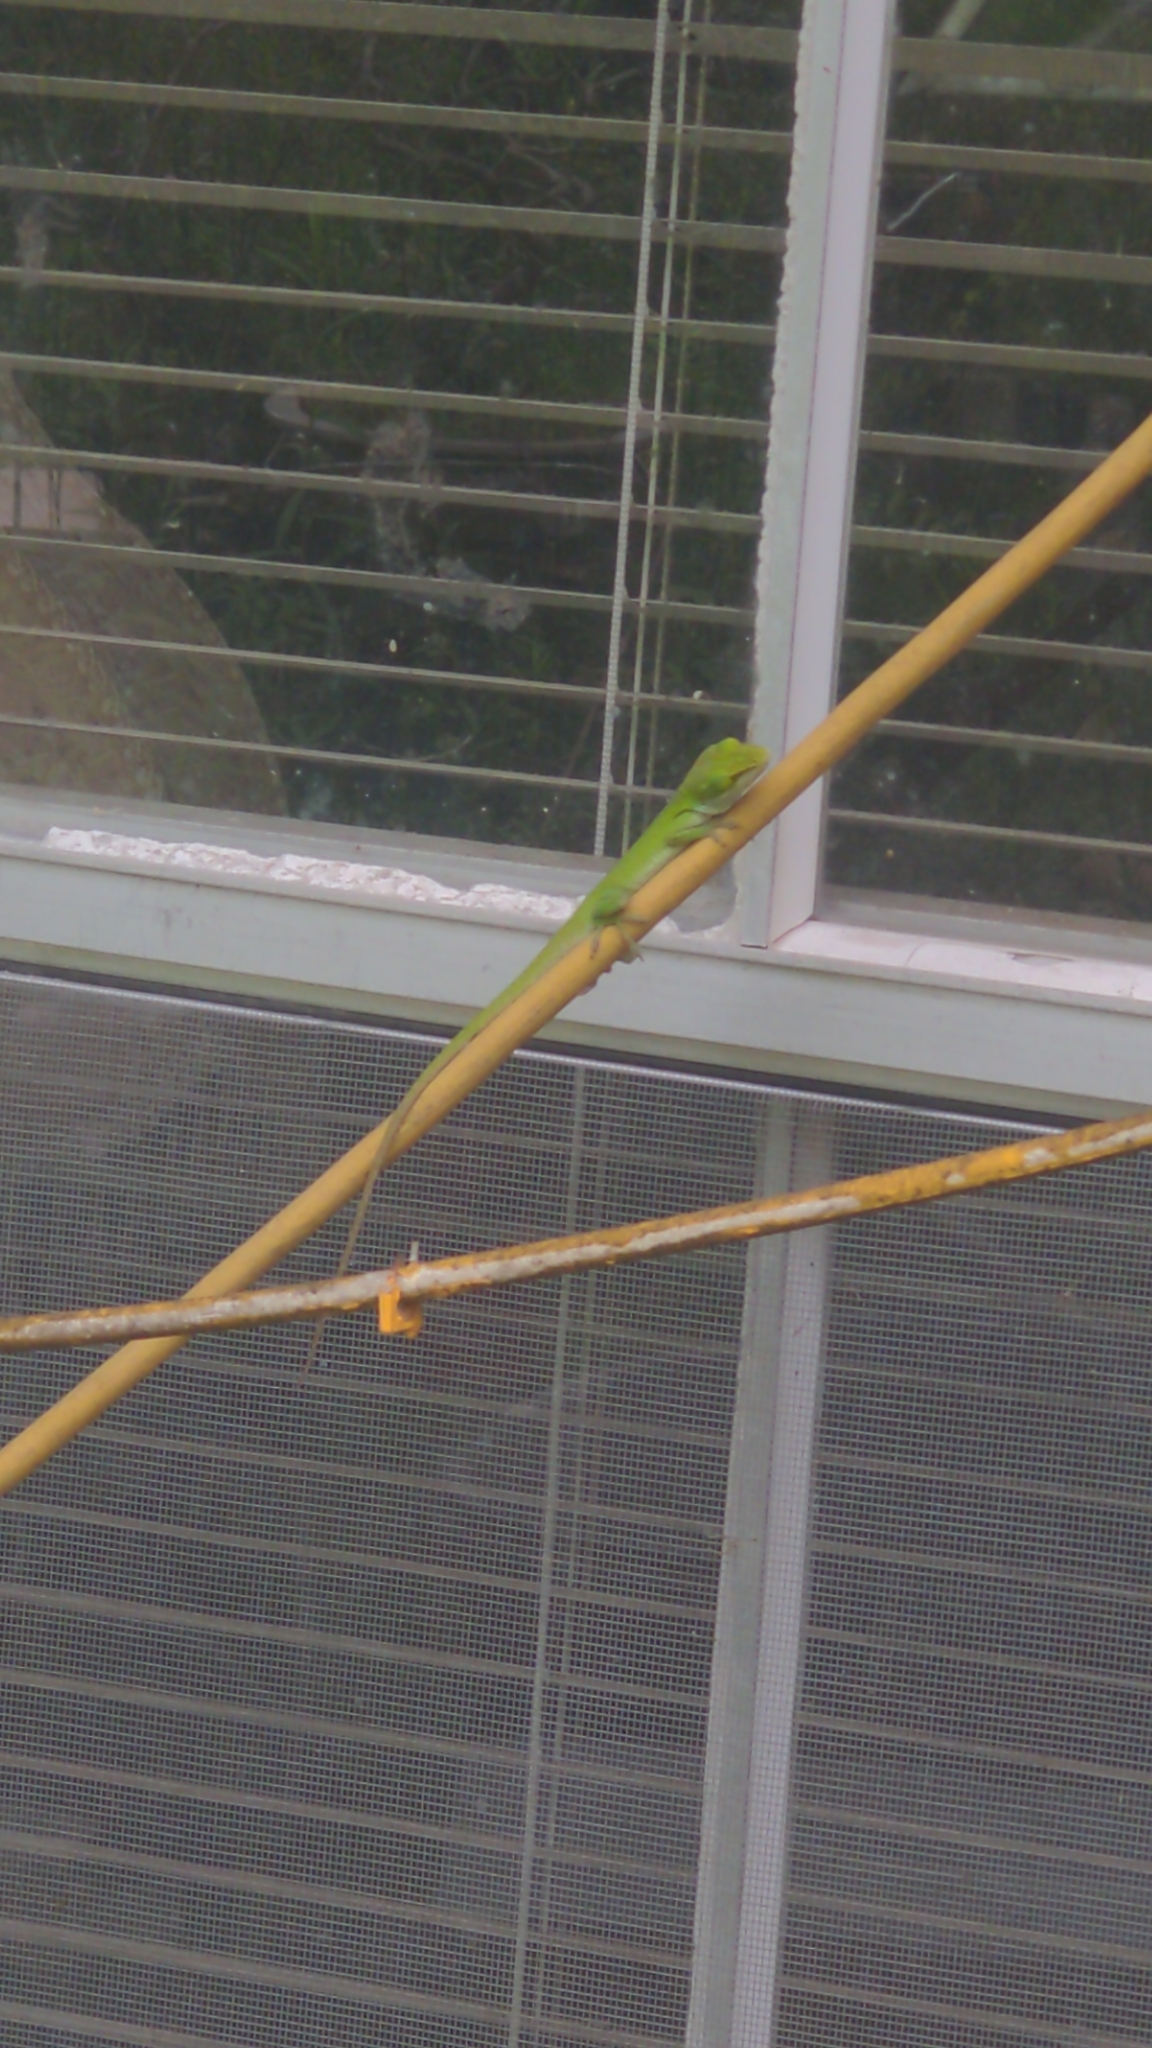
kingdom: Animalia
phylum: Chordata
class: Squamata
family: Dactyloidae
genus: Anolis
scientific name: Anolis carolinensis
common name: Green anole
